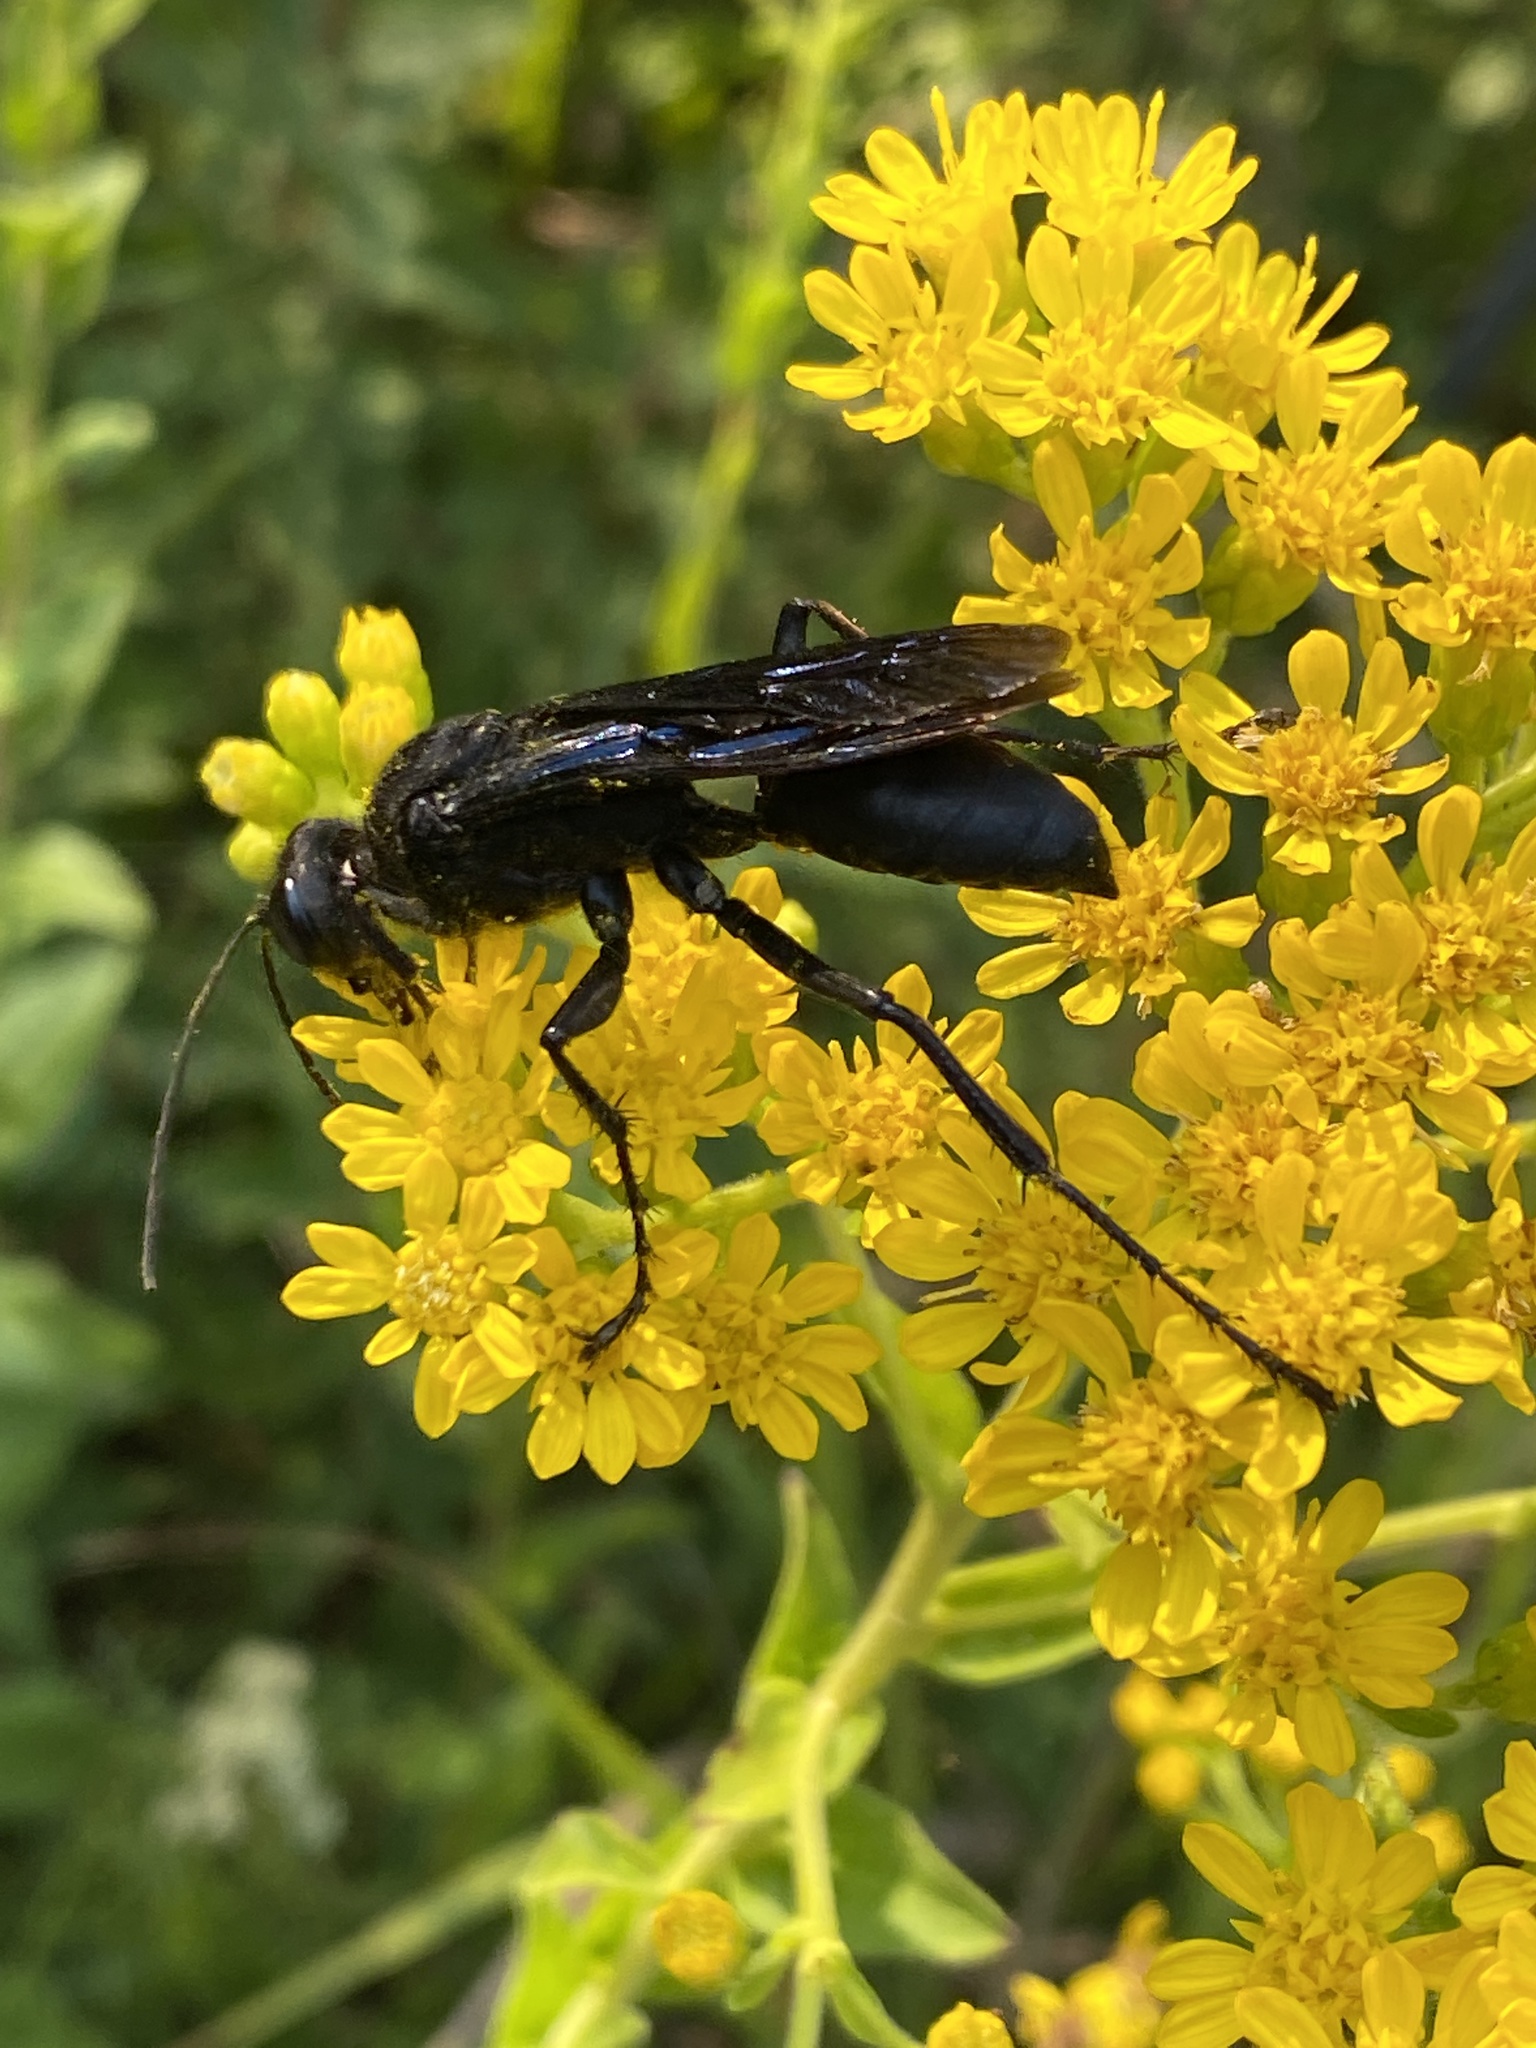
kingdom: Animalia
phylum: Arthropoda
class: Insecta
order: Hymenoptera
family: Sphecidae
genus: Sphex
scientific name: Sphex pensylvanicus
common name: Great black digger wasp
